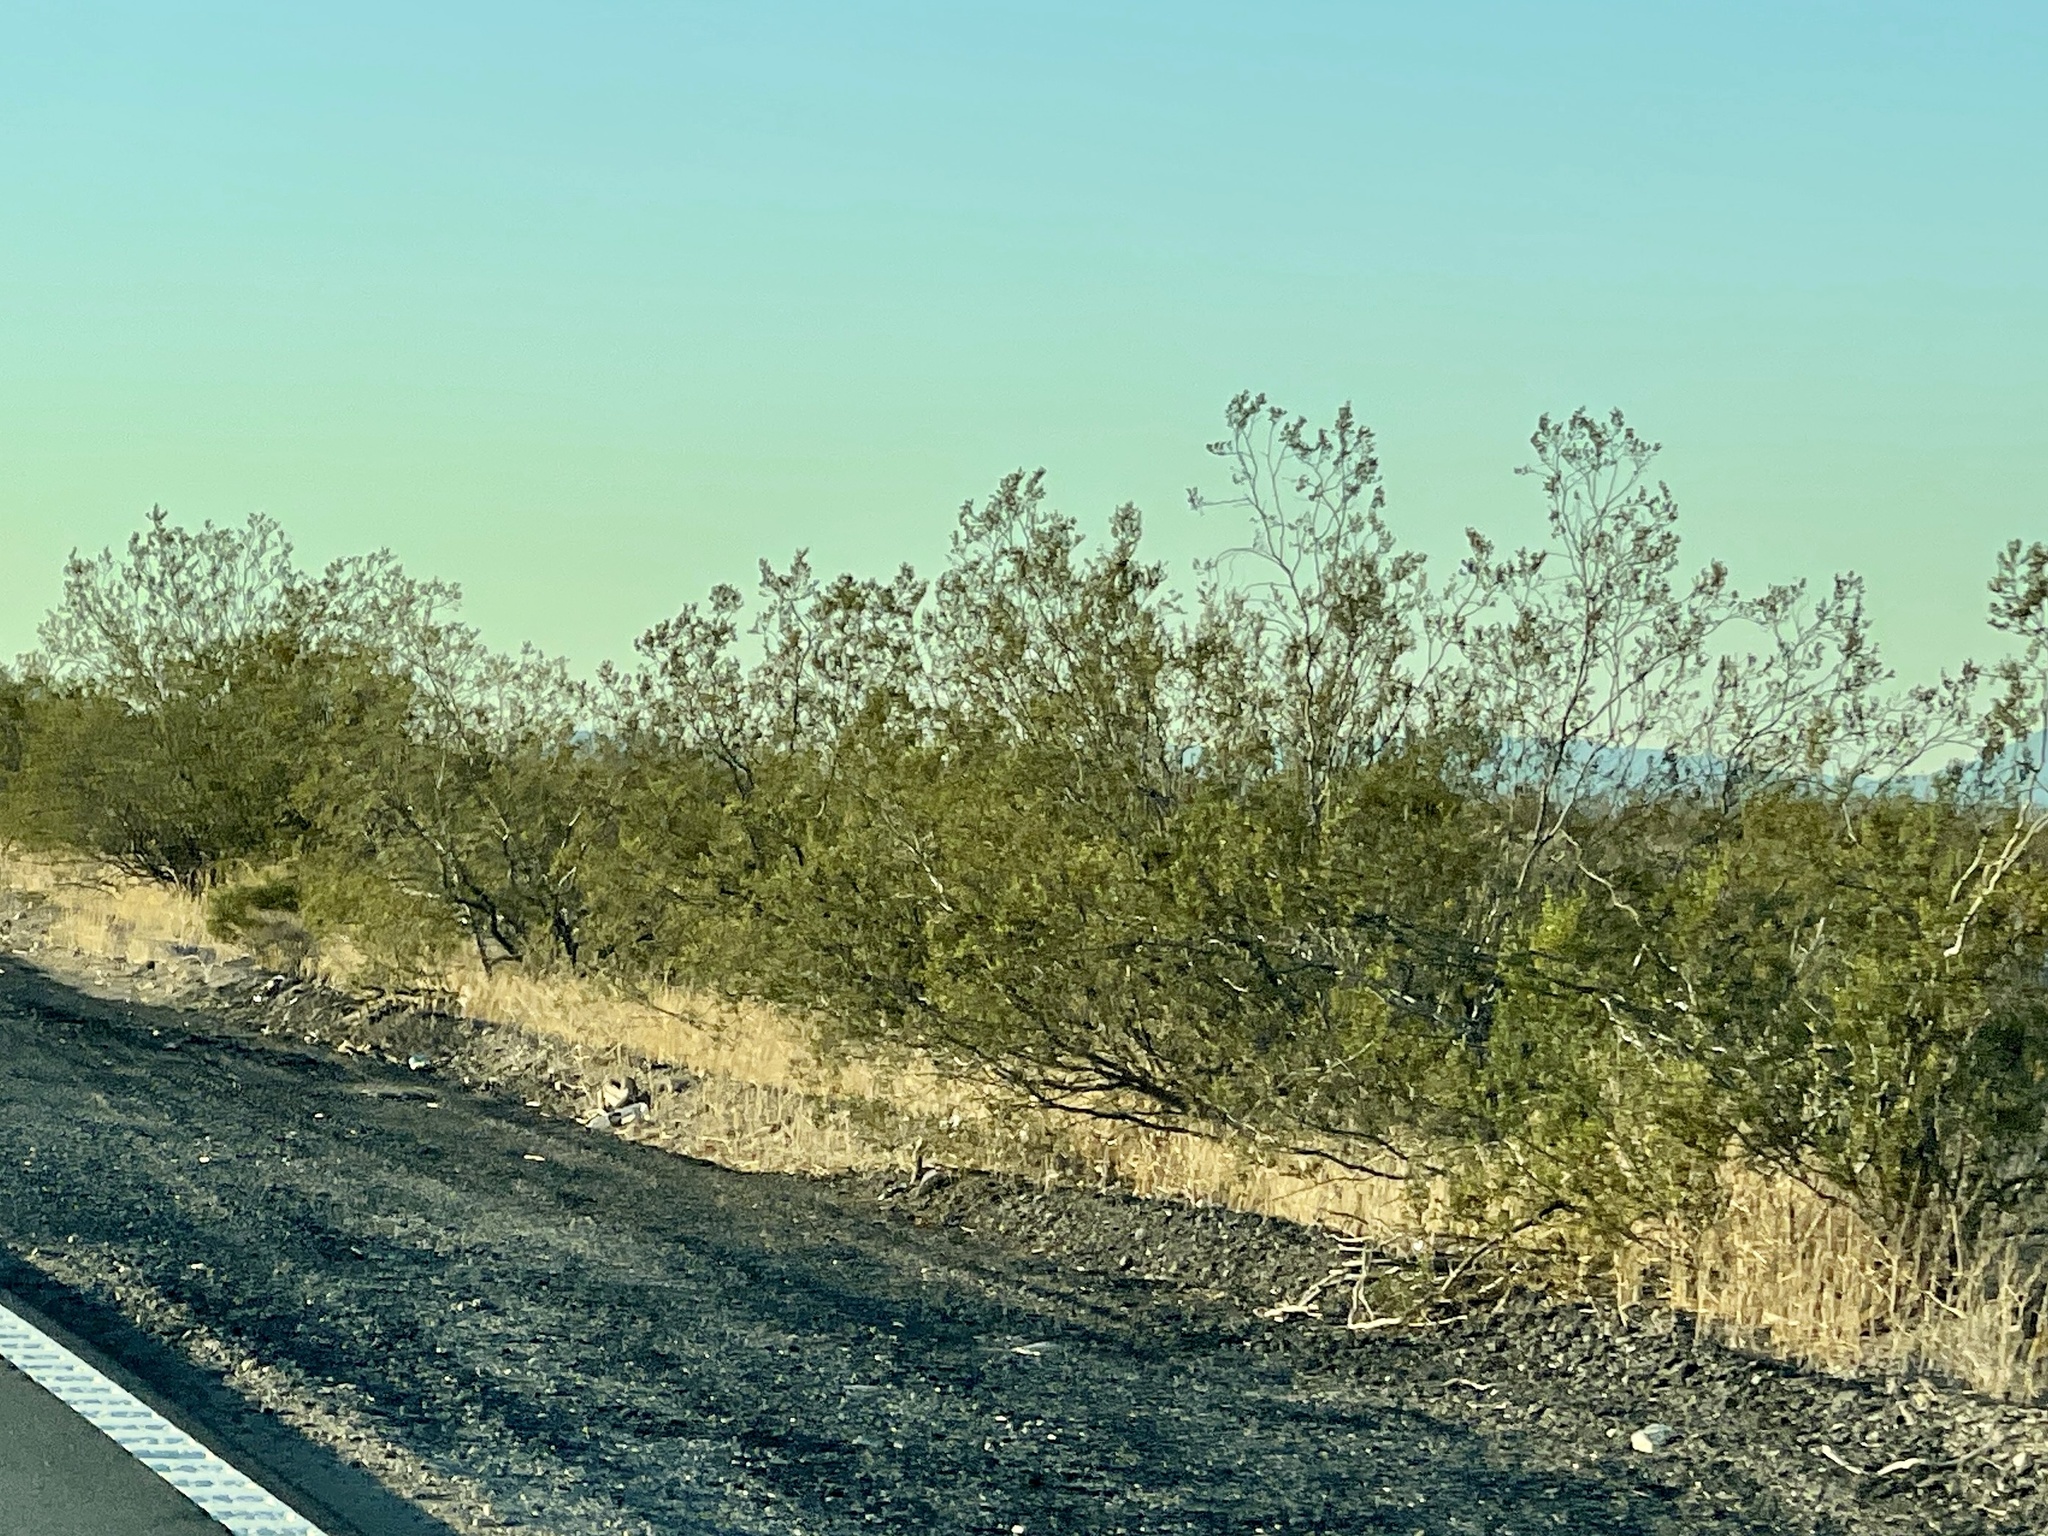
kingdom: Plantae
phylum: Tracheophyta
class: Magnoliopsida
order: Zygophyllales
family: Zygophyllaceae
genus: Larrea
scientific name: Larrea tridentata
